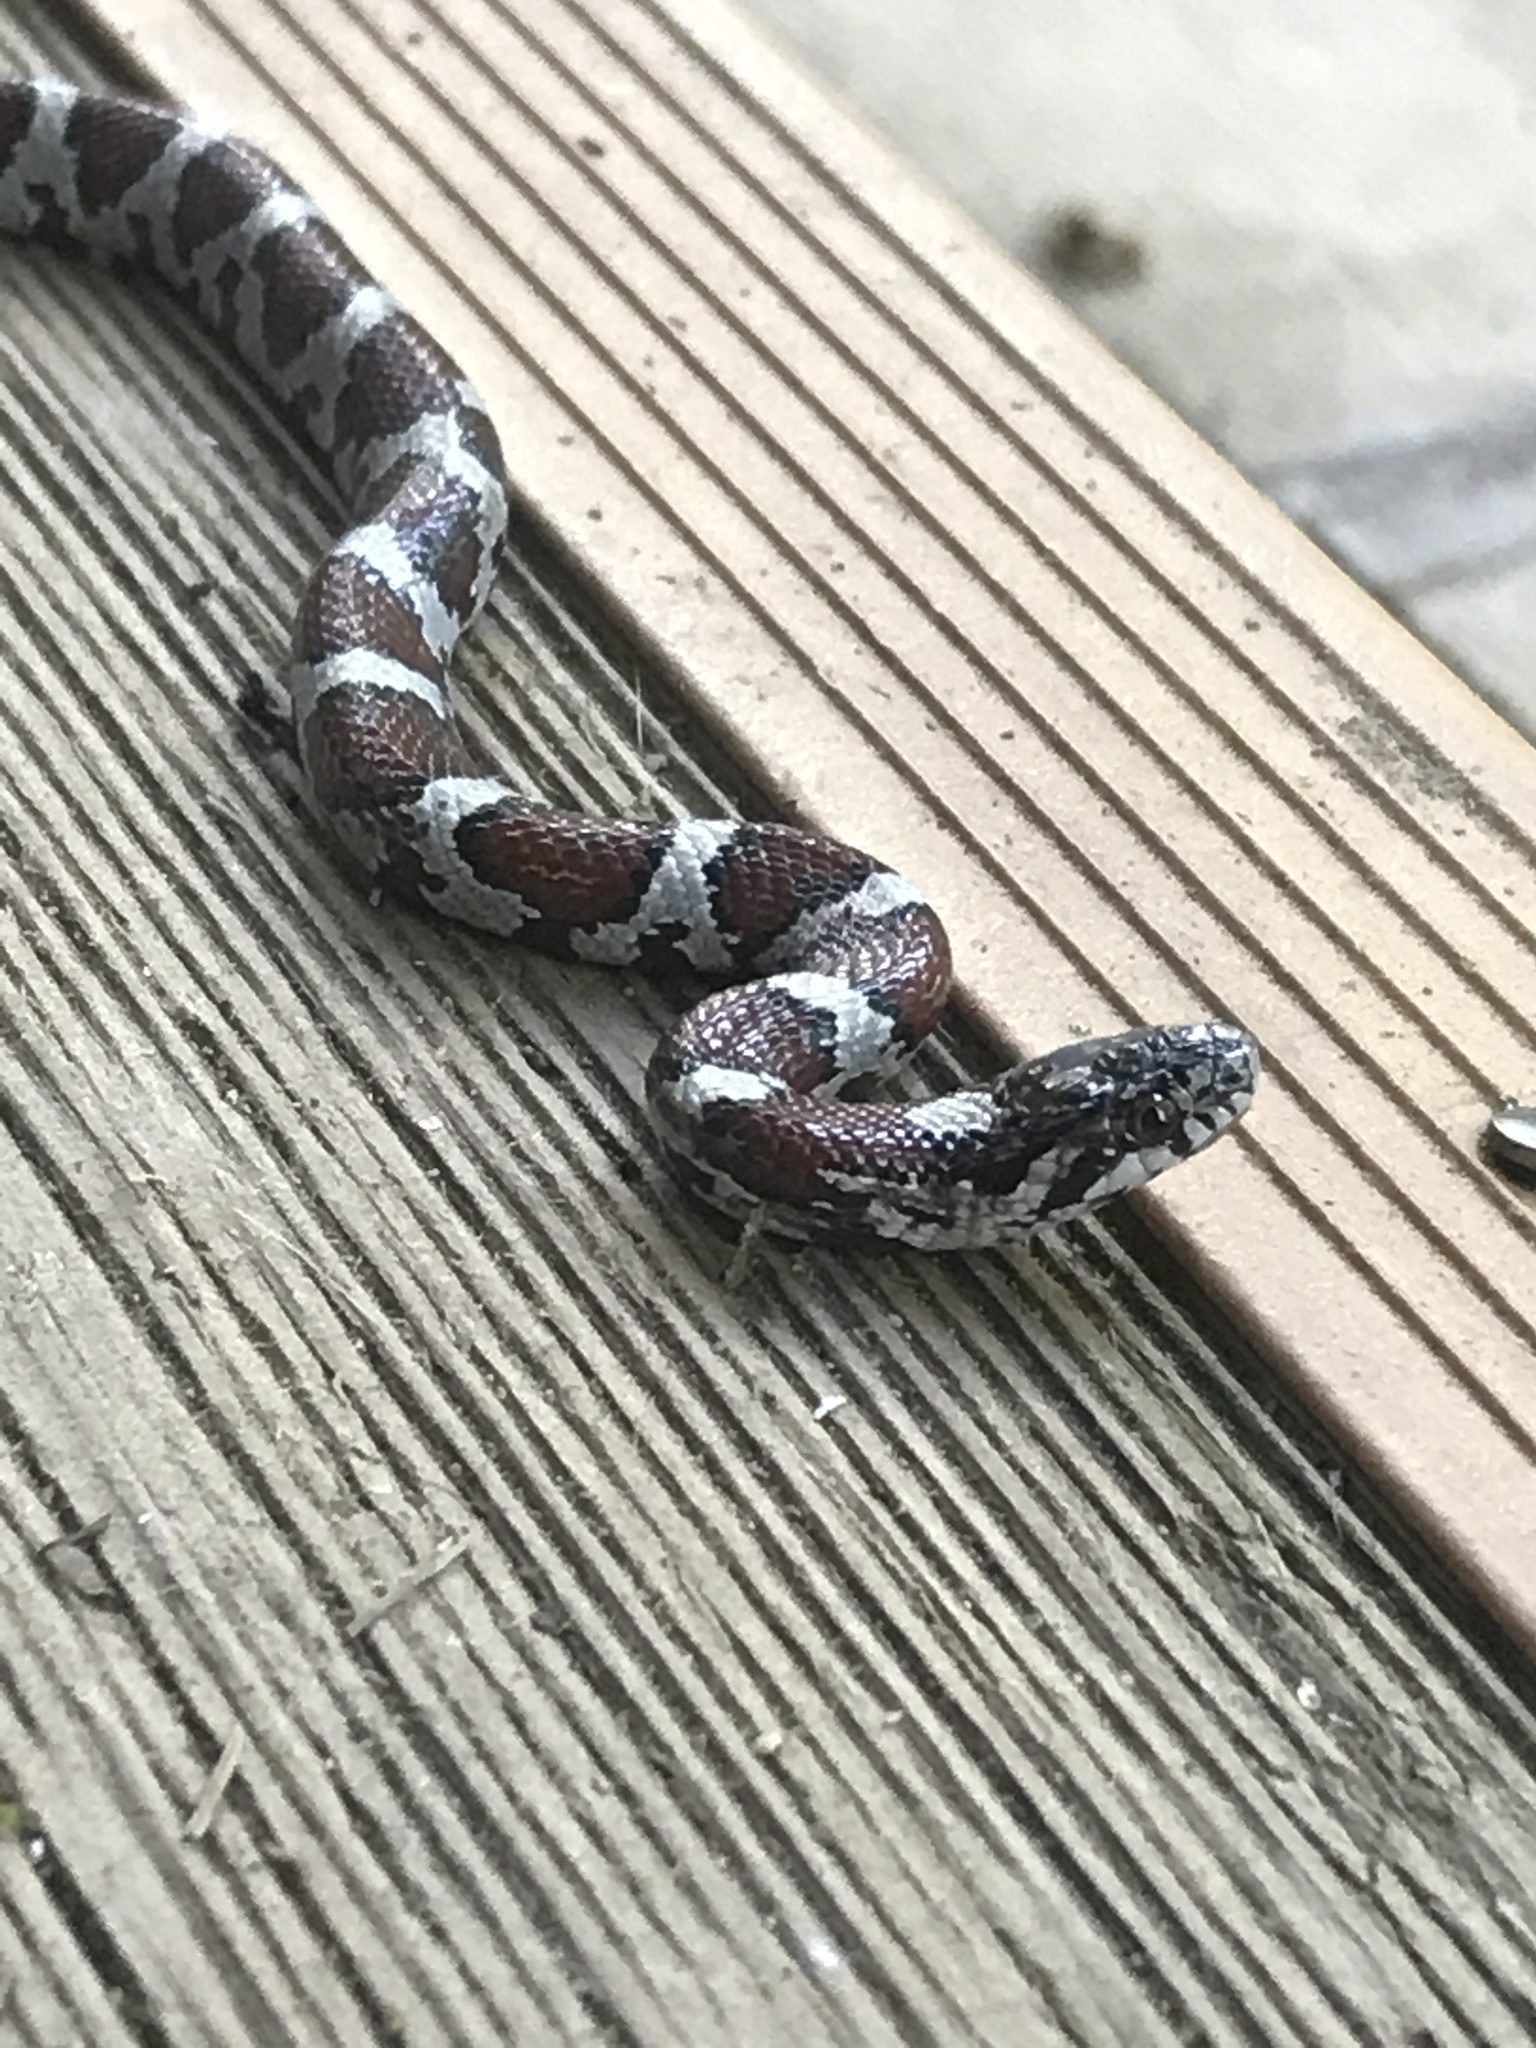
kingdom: Animalia
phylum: Chordata
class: Squamata
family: Colubridae
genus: Lampropeltis
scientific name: Lampropeltis triangulum
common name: Eastern milksnake
